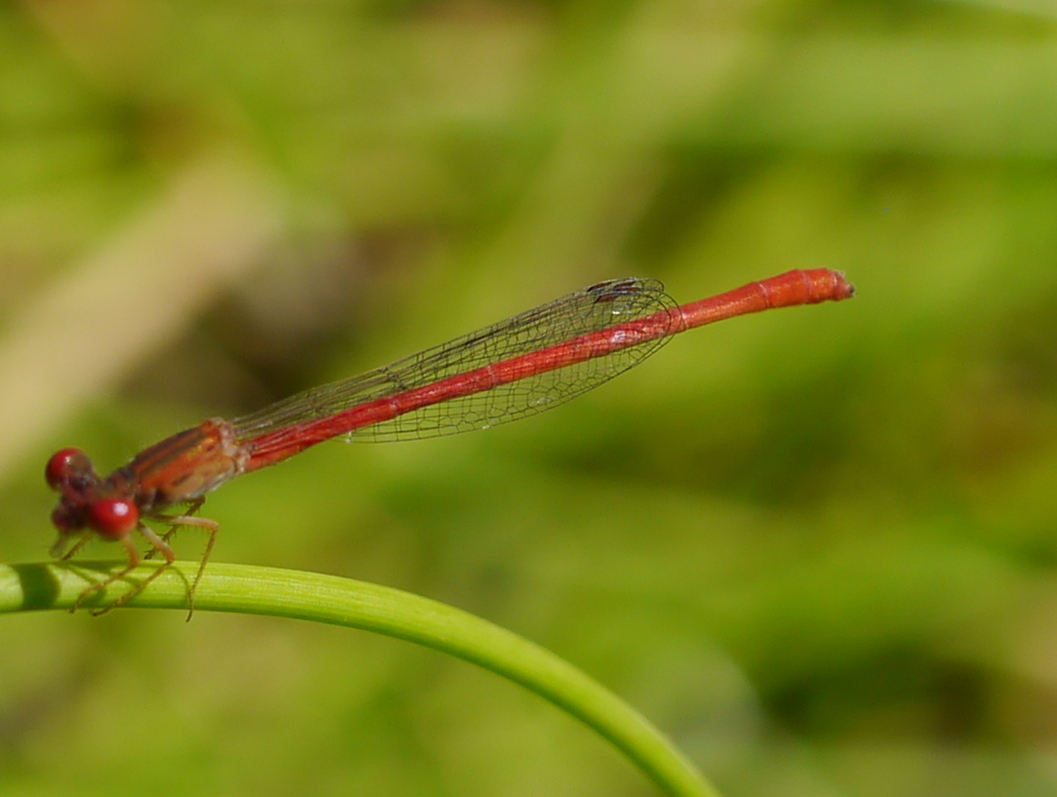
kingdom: Animalia
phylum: Arthropoda
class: Insecta
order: Odonata
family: Coenagrionidae
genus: Telebasis
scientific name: Telebasis salva
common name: Desert firetail
